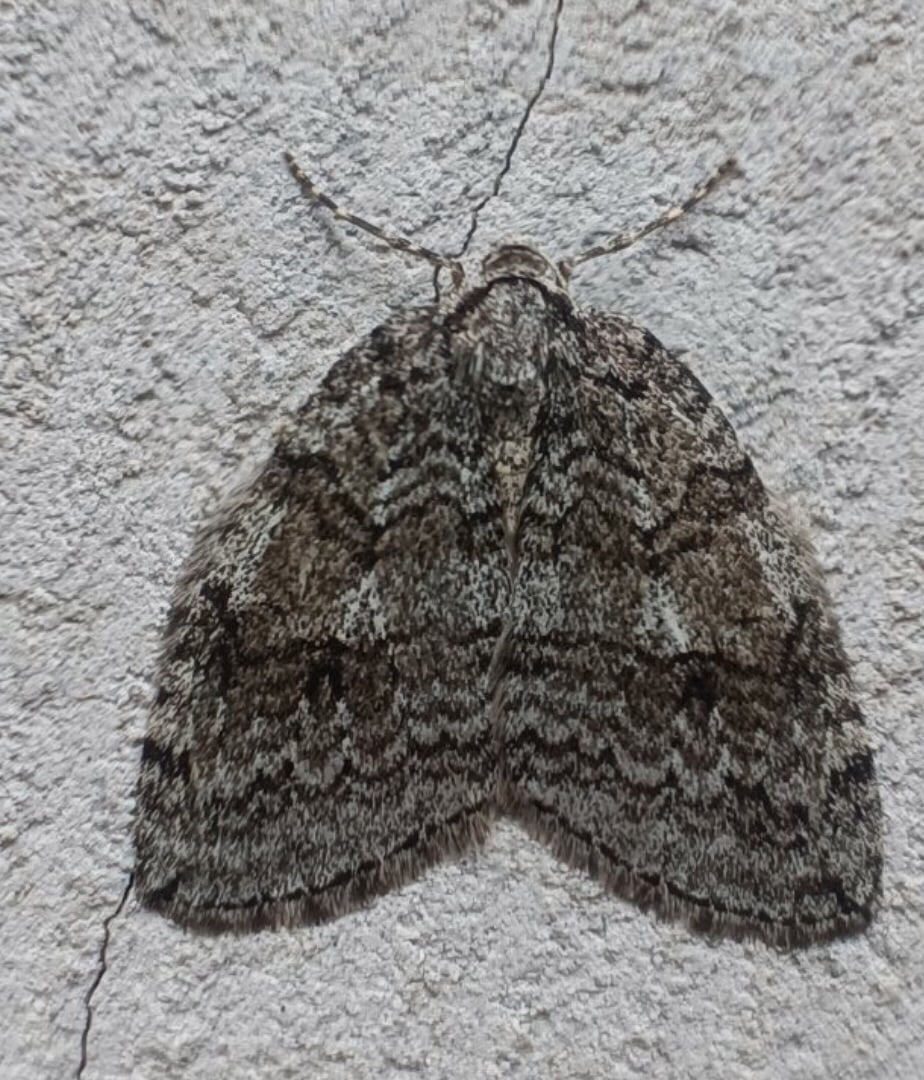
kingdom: Animalia
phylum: Arthropoda
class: Insecta
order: Lepidoptera
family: Geometridae
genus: Epirrita
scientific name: Epirrita autumnata
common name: Autumnal moth
